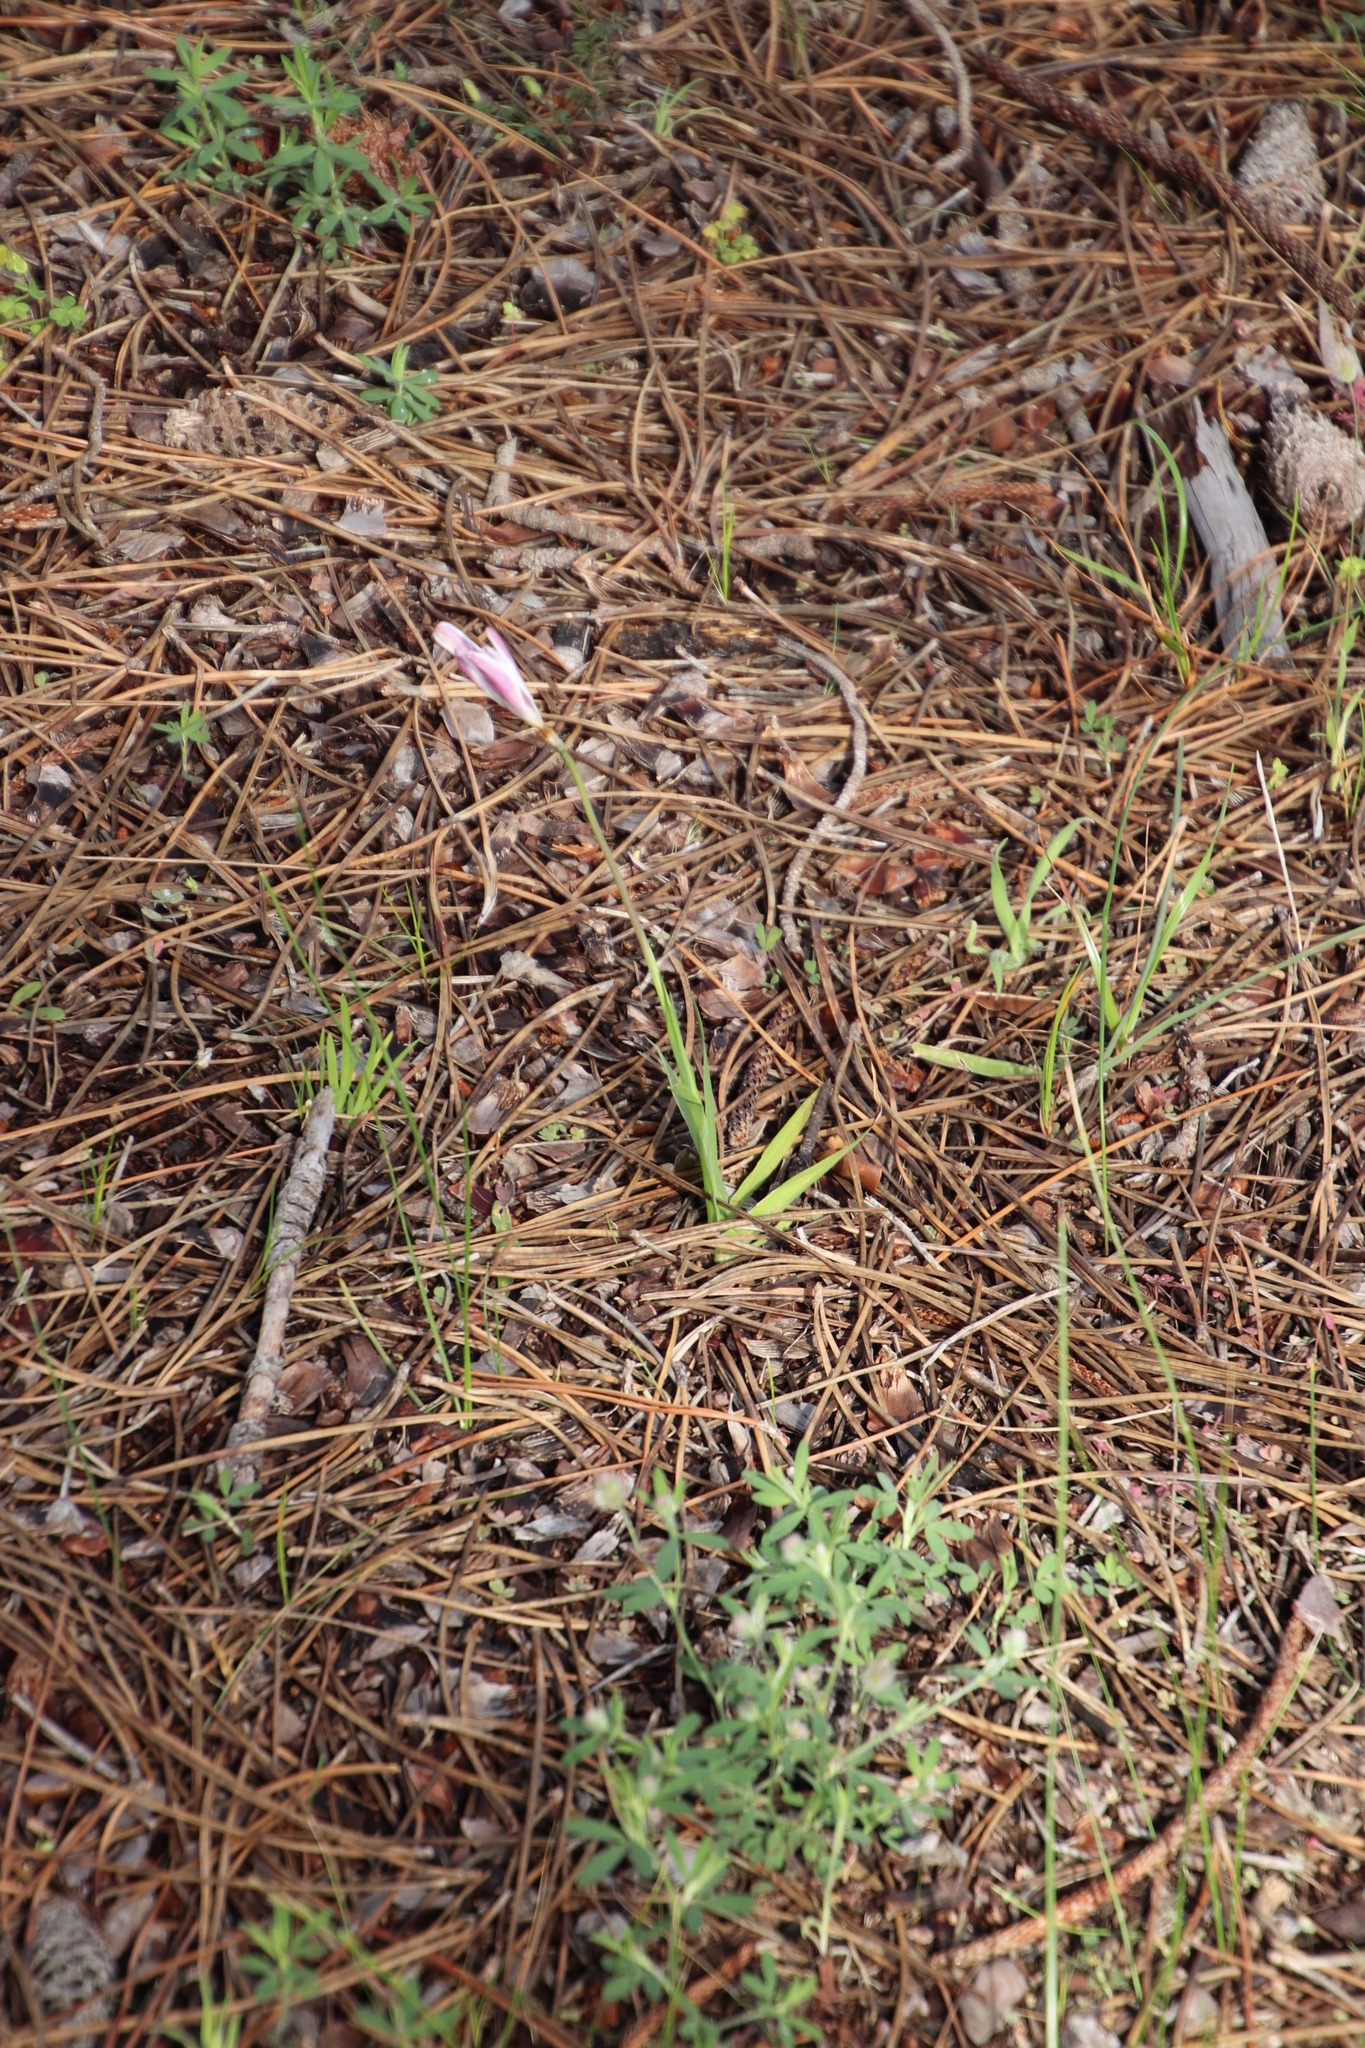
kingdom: Plantae
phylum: Tracheophyta
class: Liliopsida
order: Asparagales
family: Iridaceae
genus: Sparaxis
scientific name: Sparaxis bulbifera
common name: Harlequin-flower
